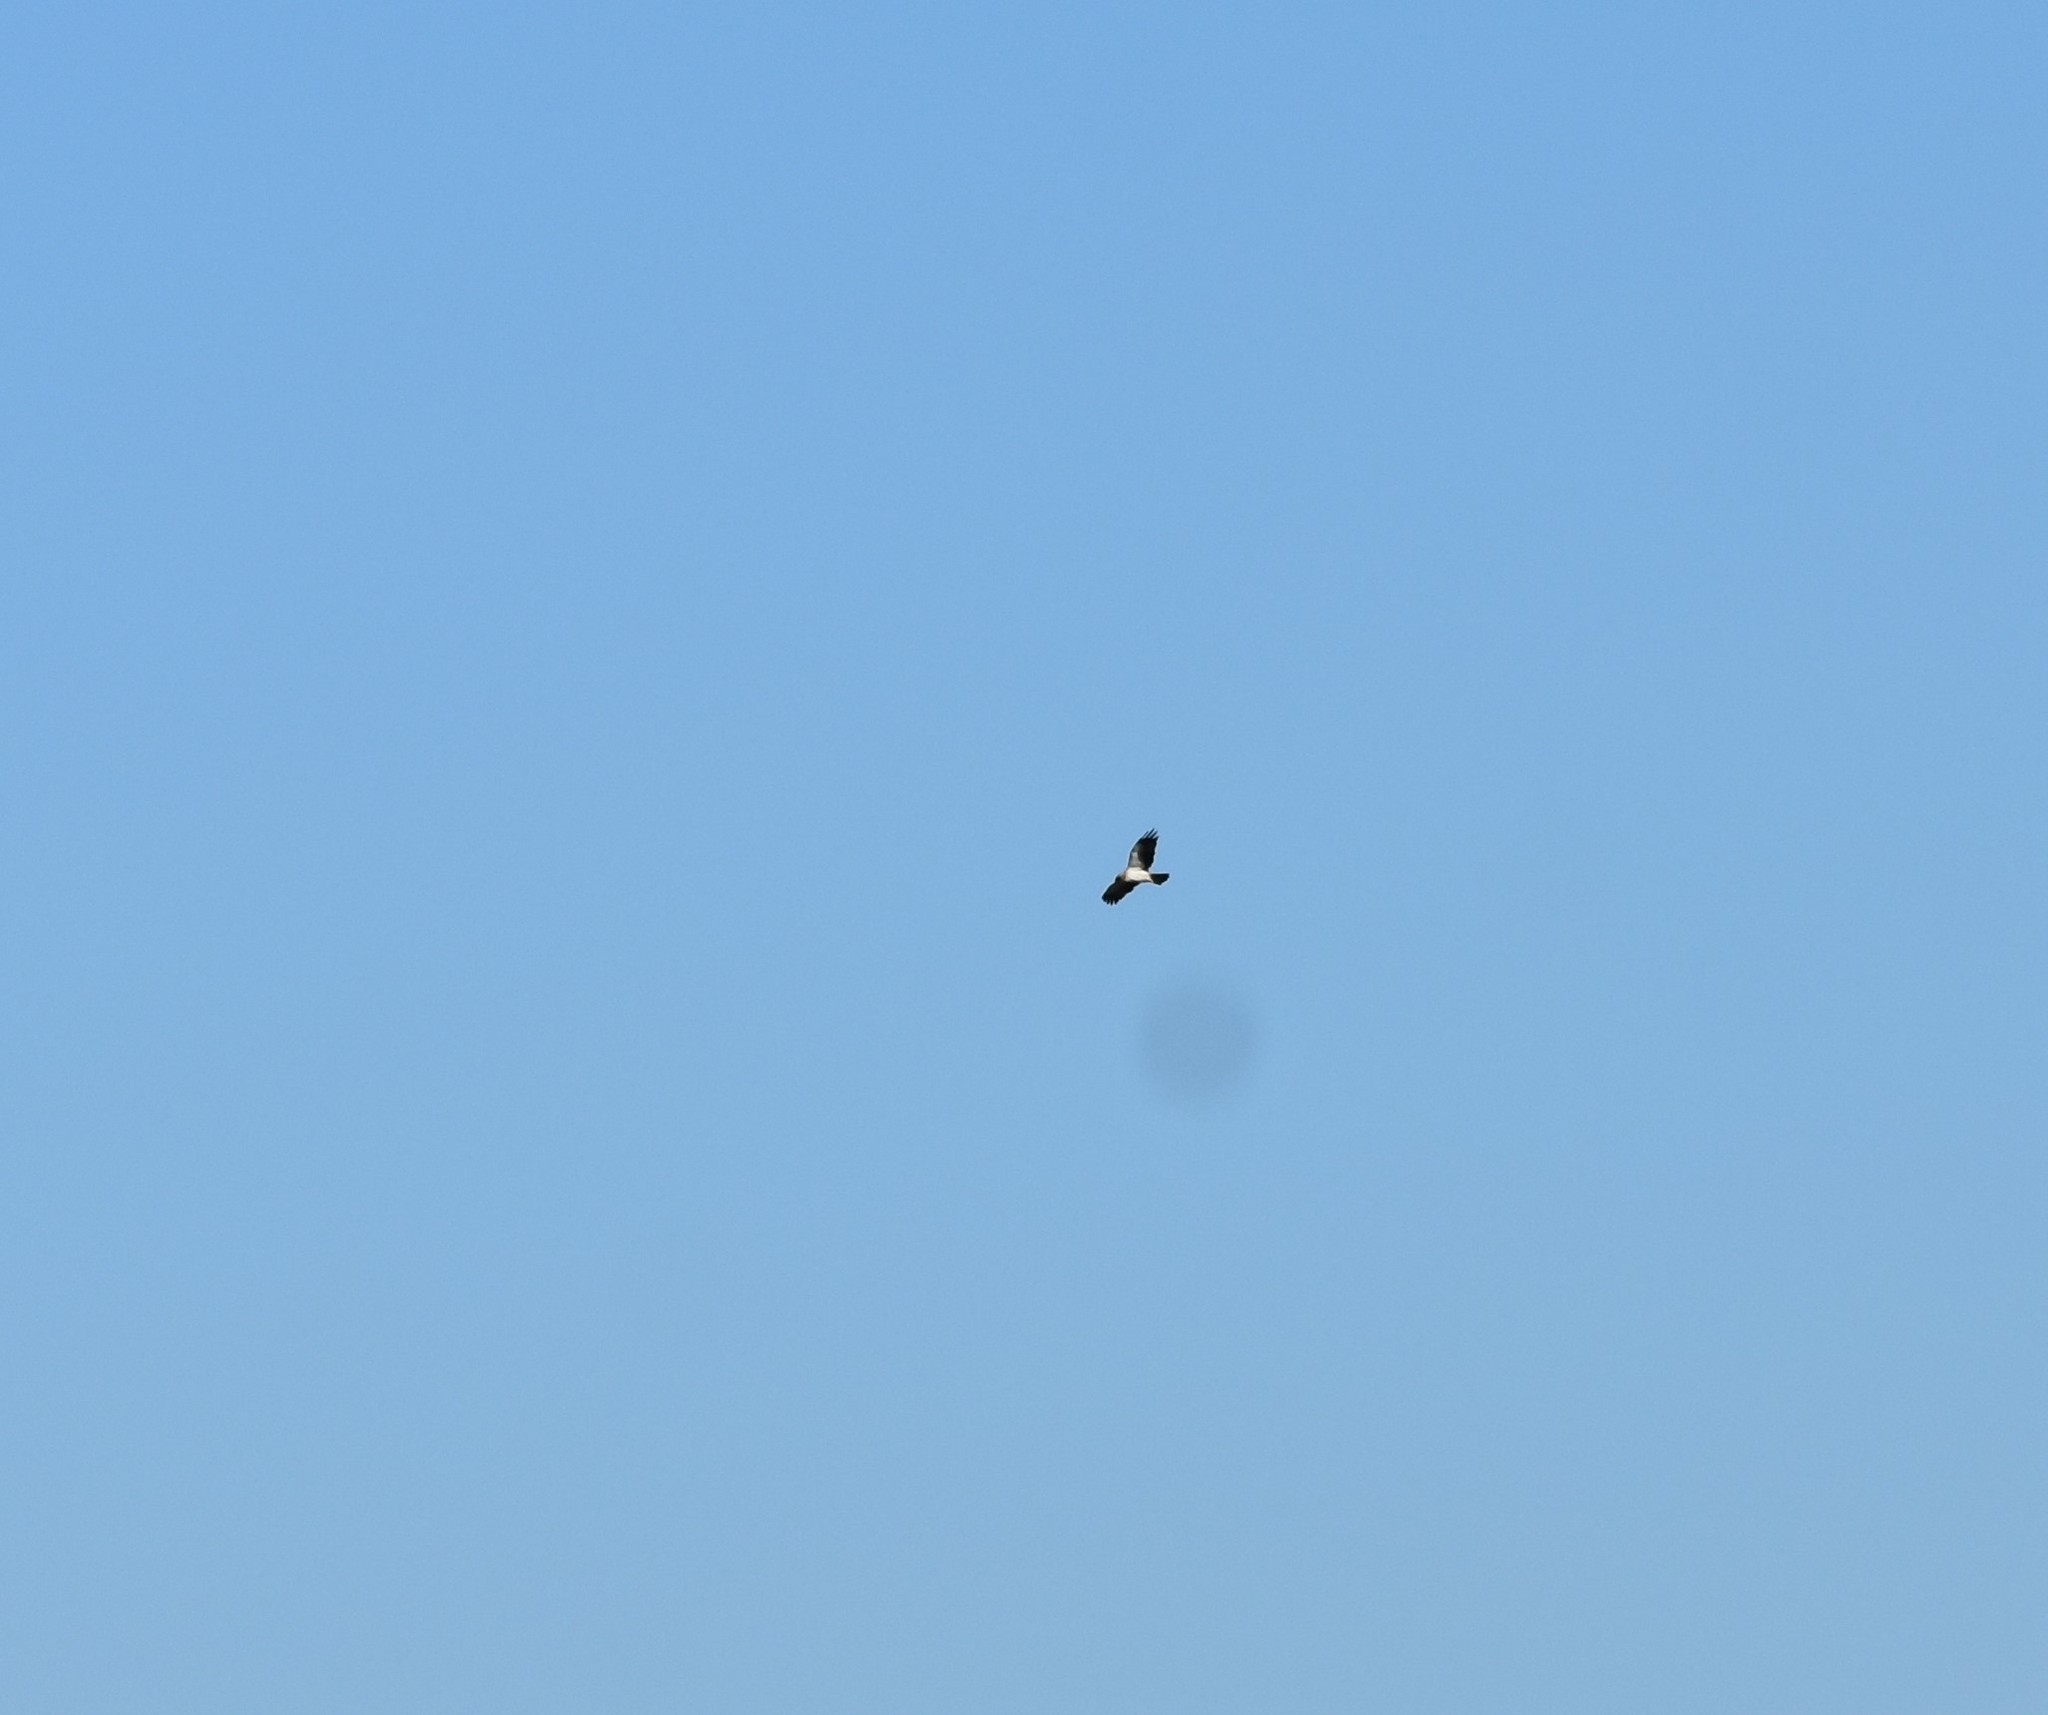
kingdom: Animalia
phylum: Chordata
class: Aves
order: Accipitriformes
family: Accipitridae
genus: Hieraaetus
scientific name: Hieraaetus pennatus
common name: Booted eagle
